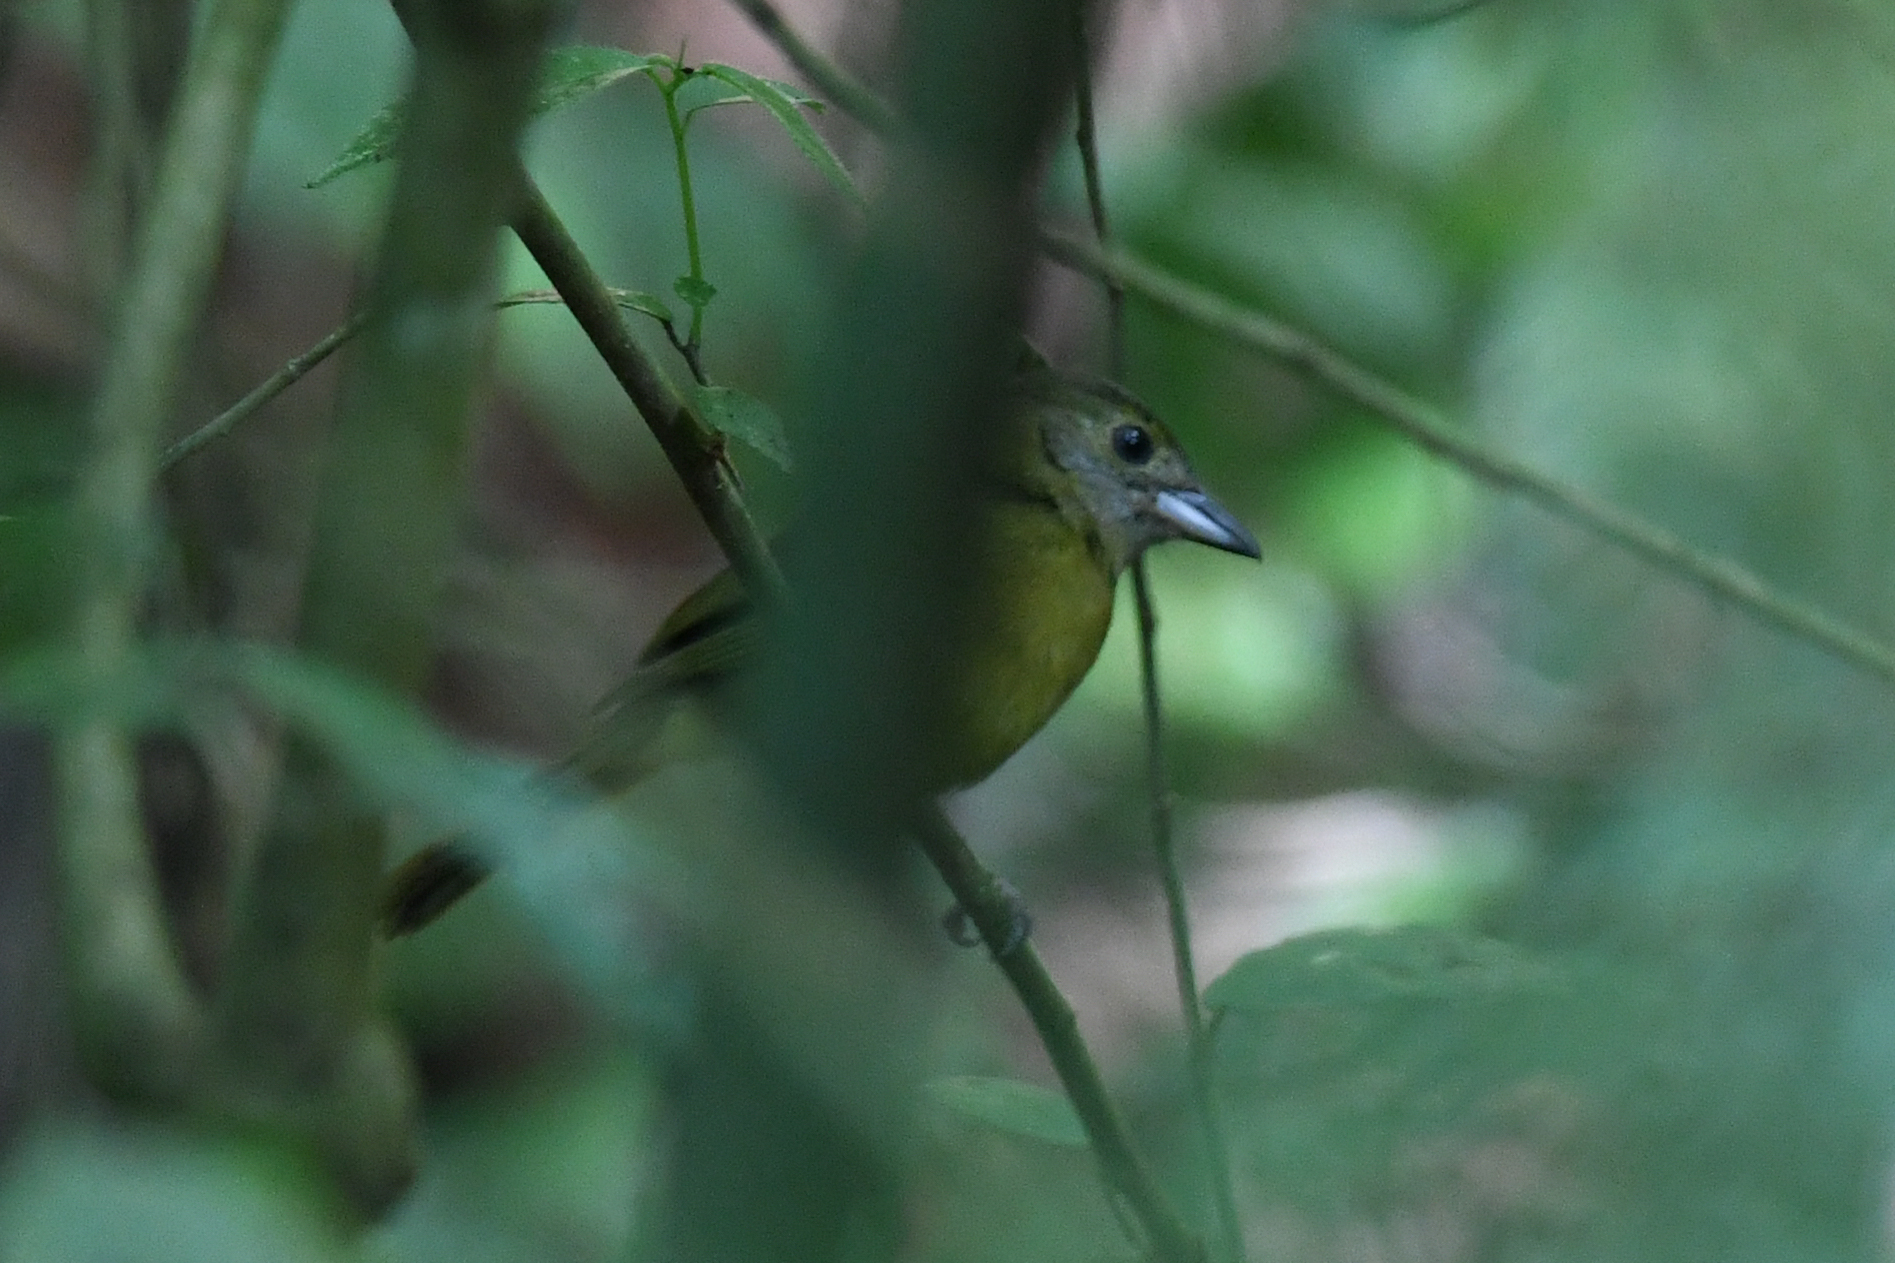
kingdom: Animalia
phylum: Chordata
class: Aves
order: Passeriformes
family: Thraupidae
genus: Loriotus
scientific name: Loriotus luctuosus
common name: White-shouldered tanager
